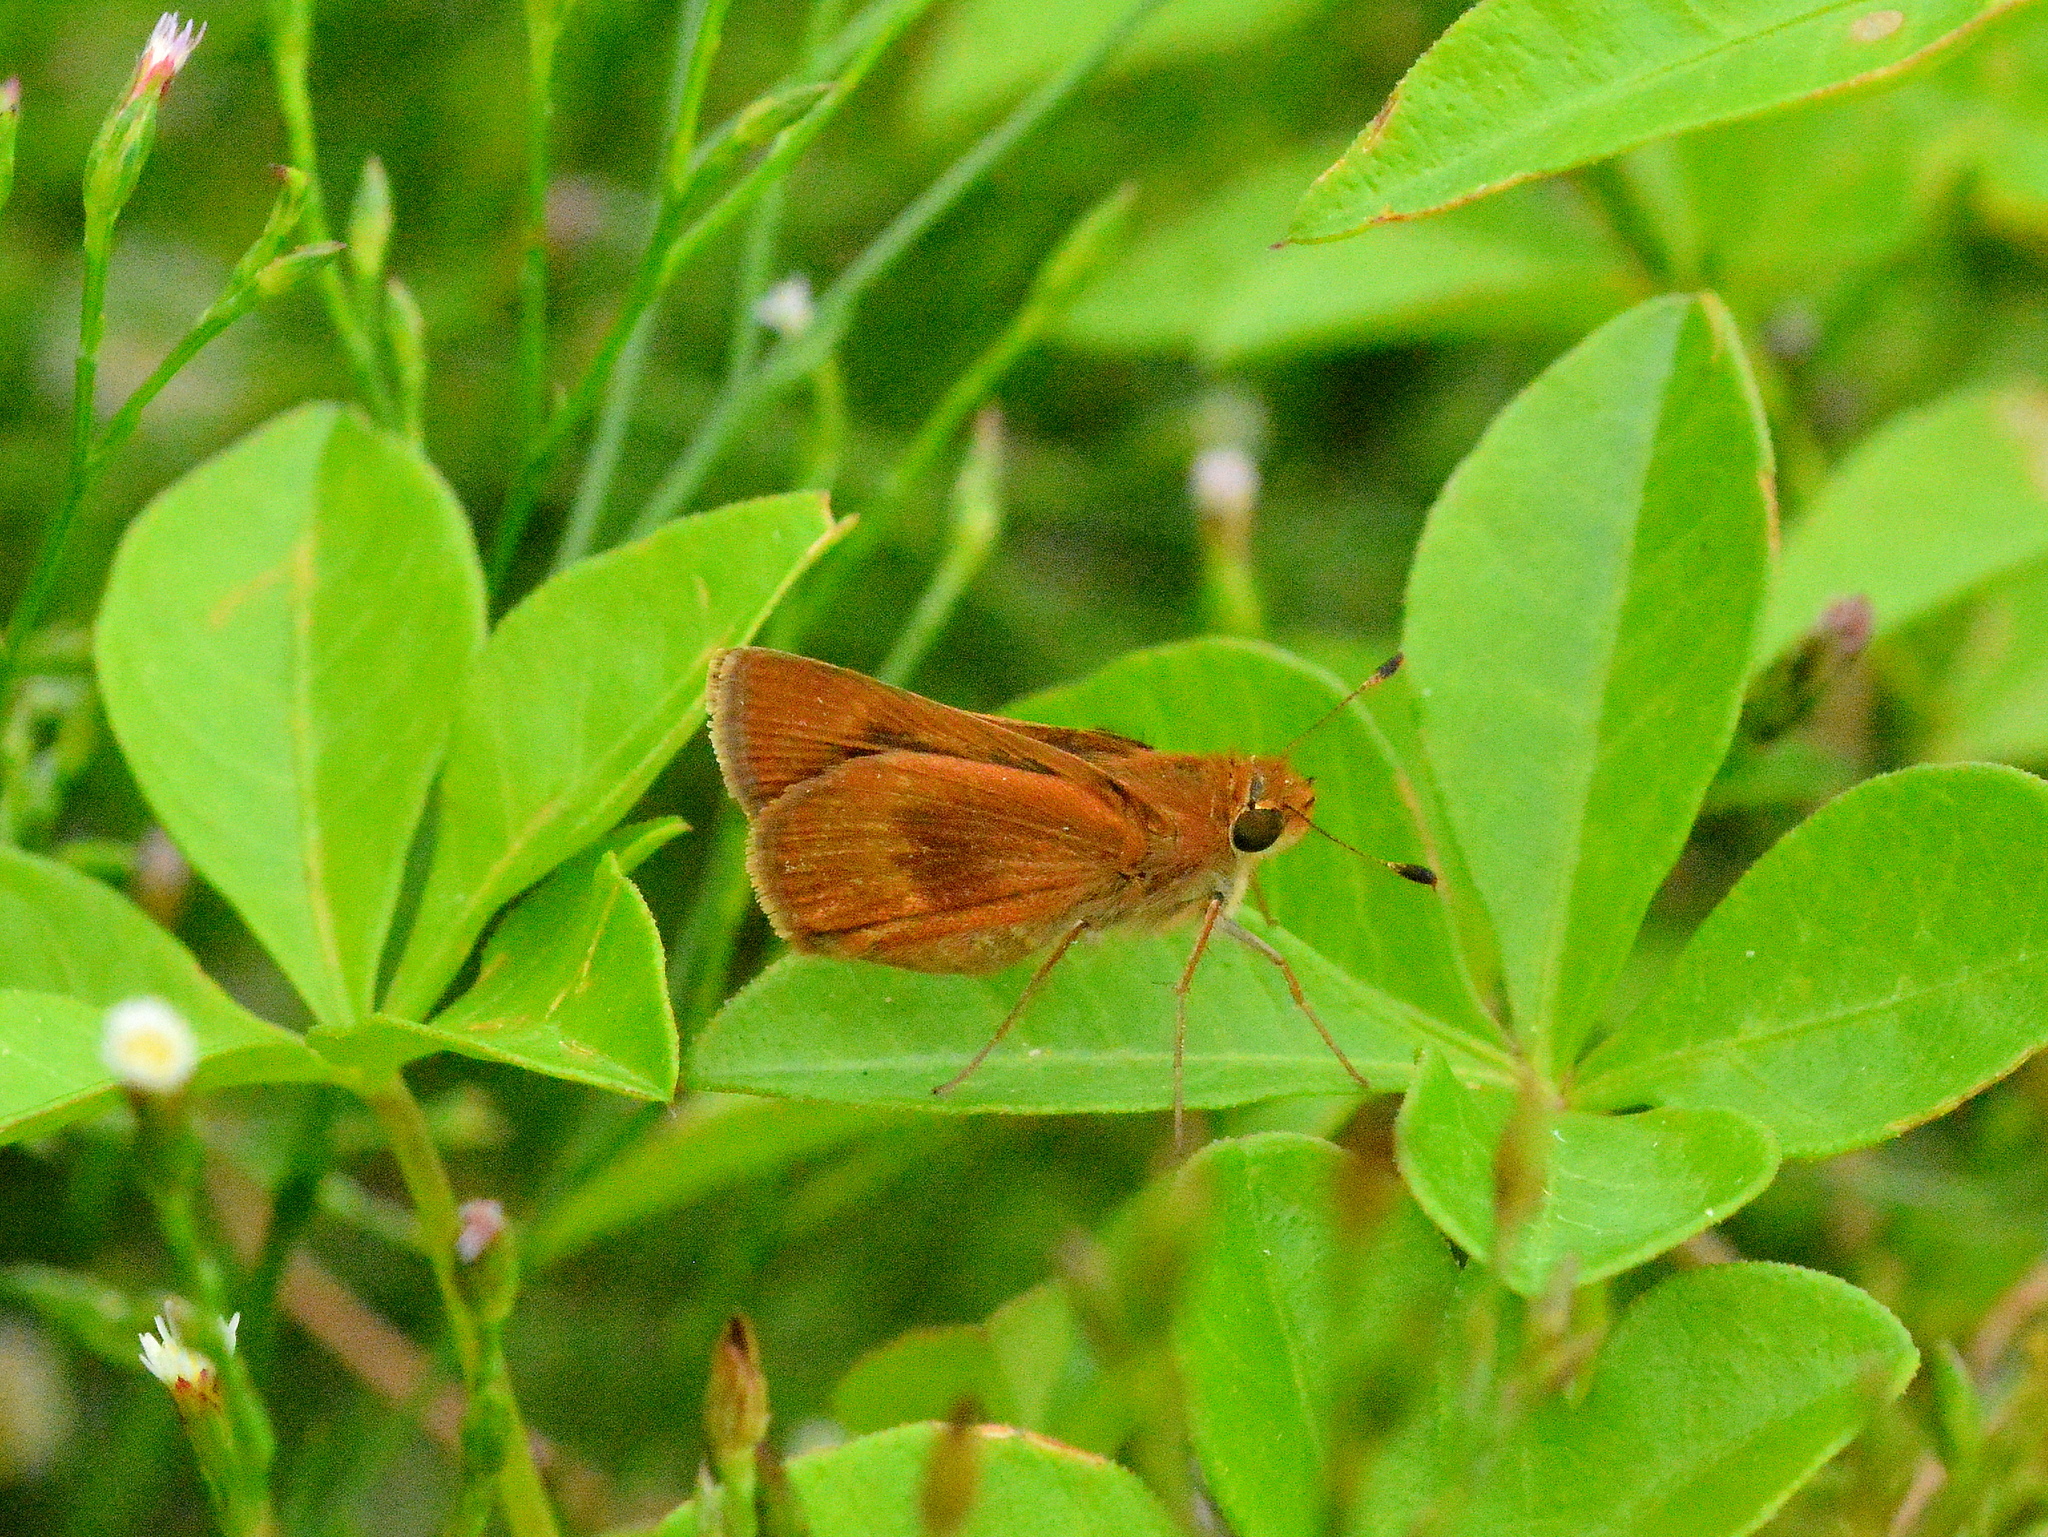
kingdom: Animalia
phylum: Arthropoda
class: Insecta
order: Lepidoptera
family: Hesperiidae
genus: Conga
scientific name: Conga iheringii
